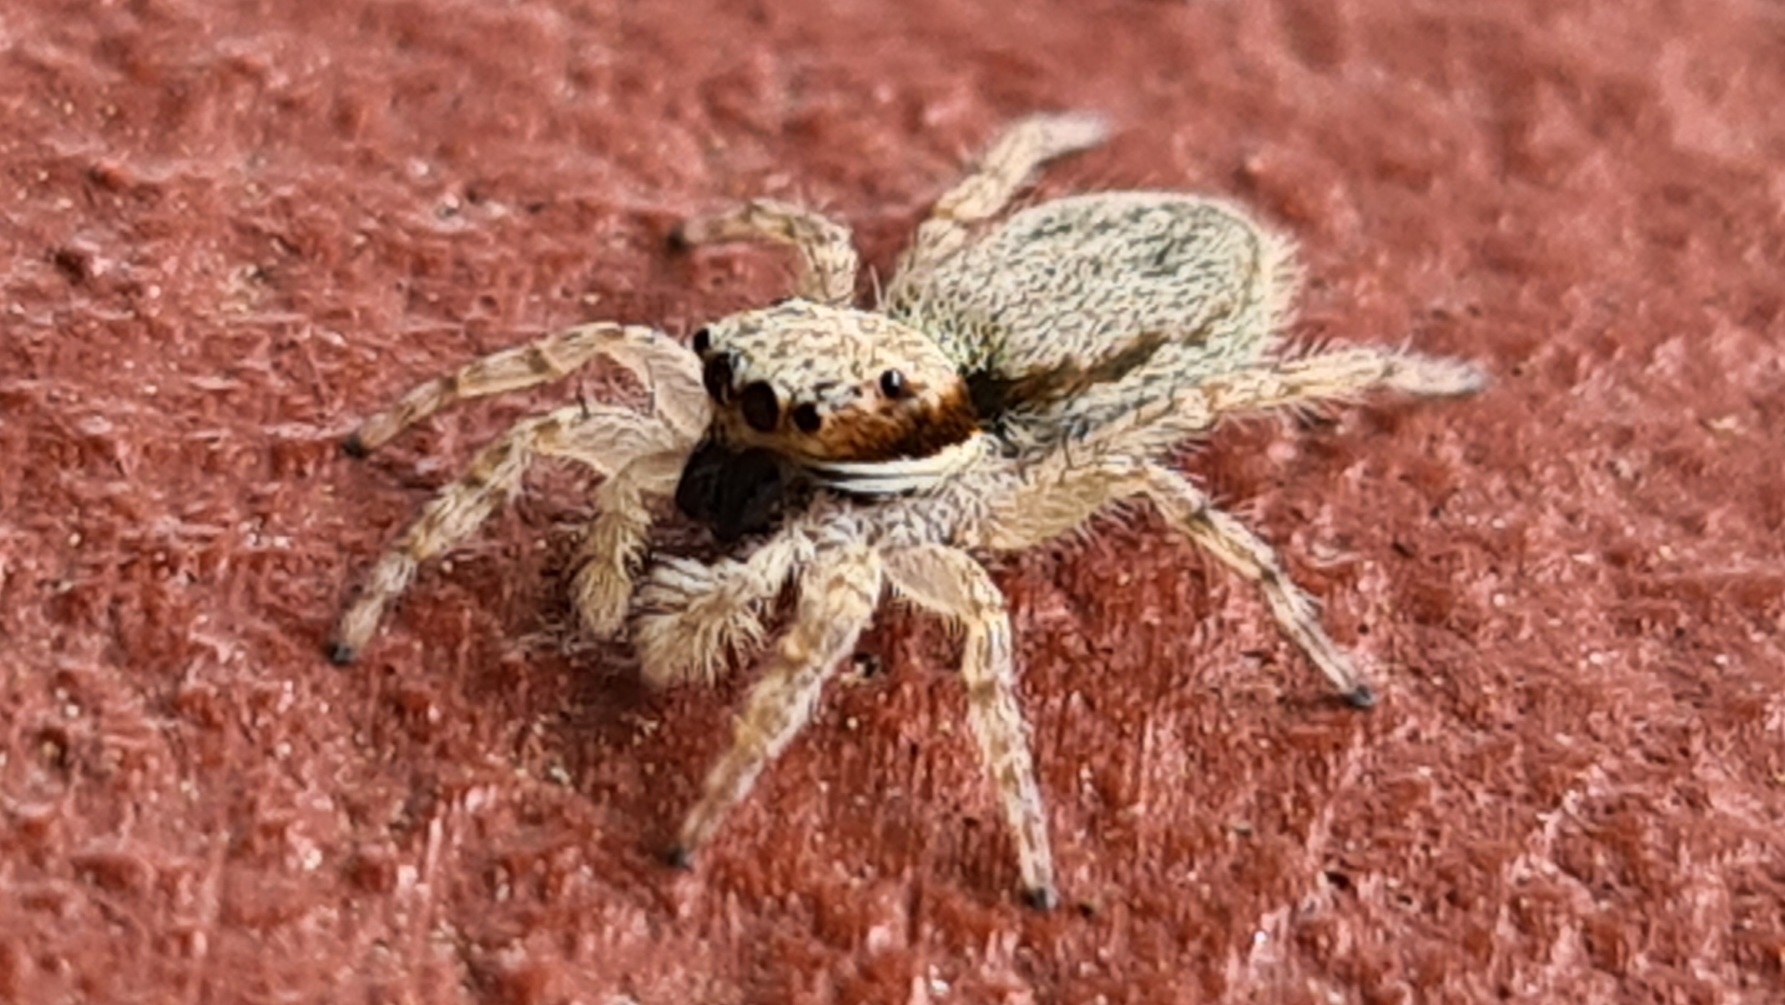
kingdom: Animalia
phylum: Arthropoda
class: Arachnida
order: Araneae
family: Salticidae
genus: Menemerus
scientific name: Menemerus bivittatus
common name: Gray wall jumper
